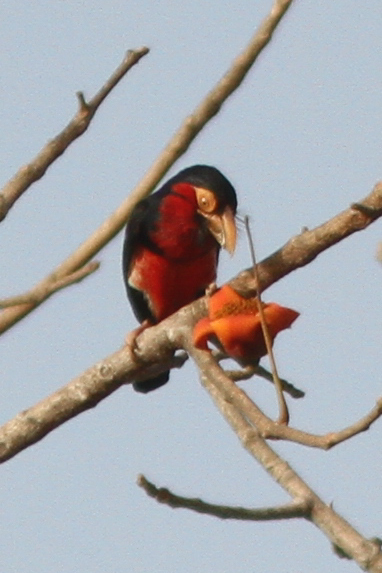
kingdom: Animalia
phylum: Chordata
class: Aves
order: Piciformes
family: Lybiidae
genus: Lybius
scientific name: Lybius dubius
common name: Bearded barbet
